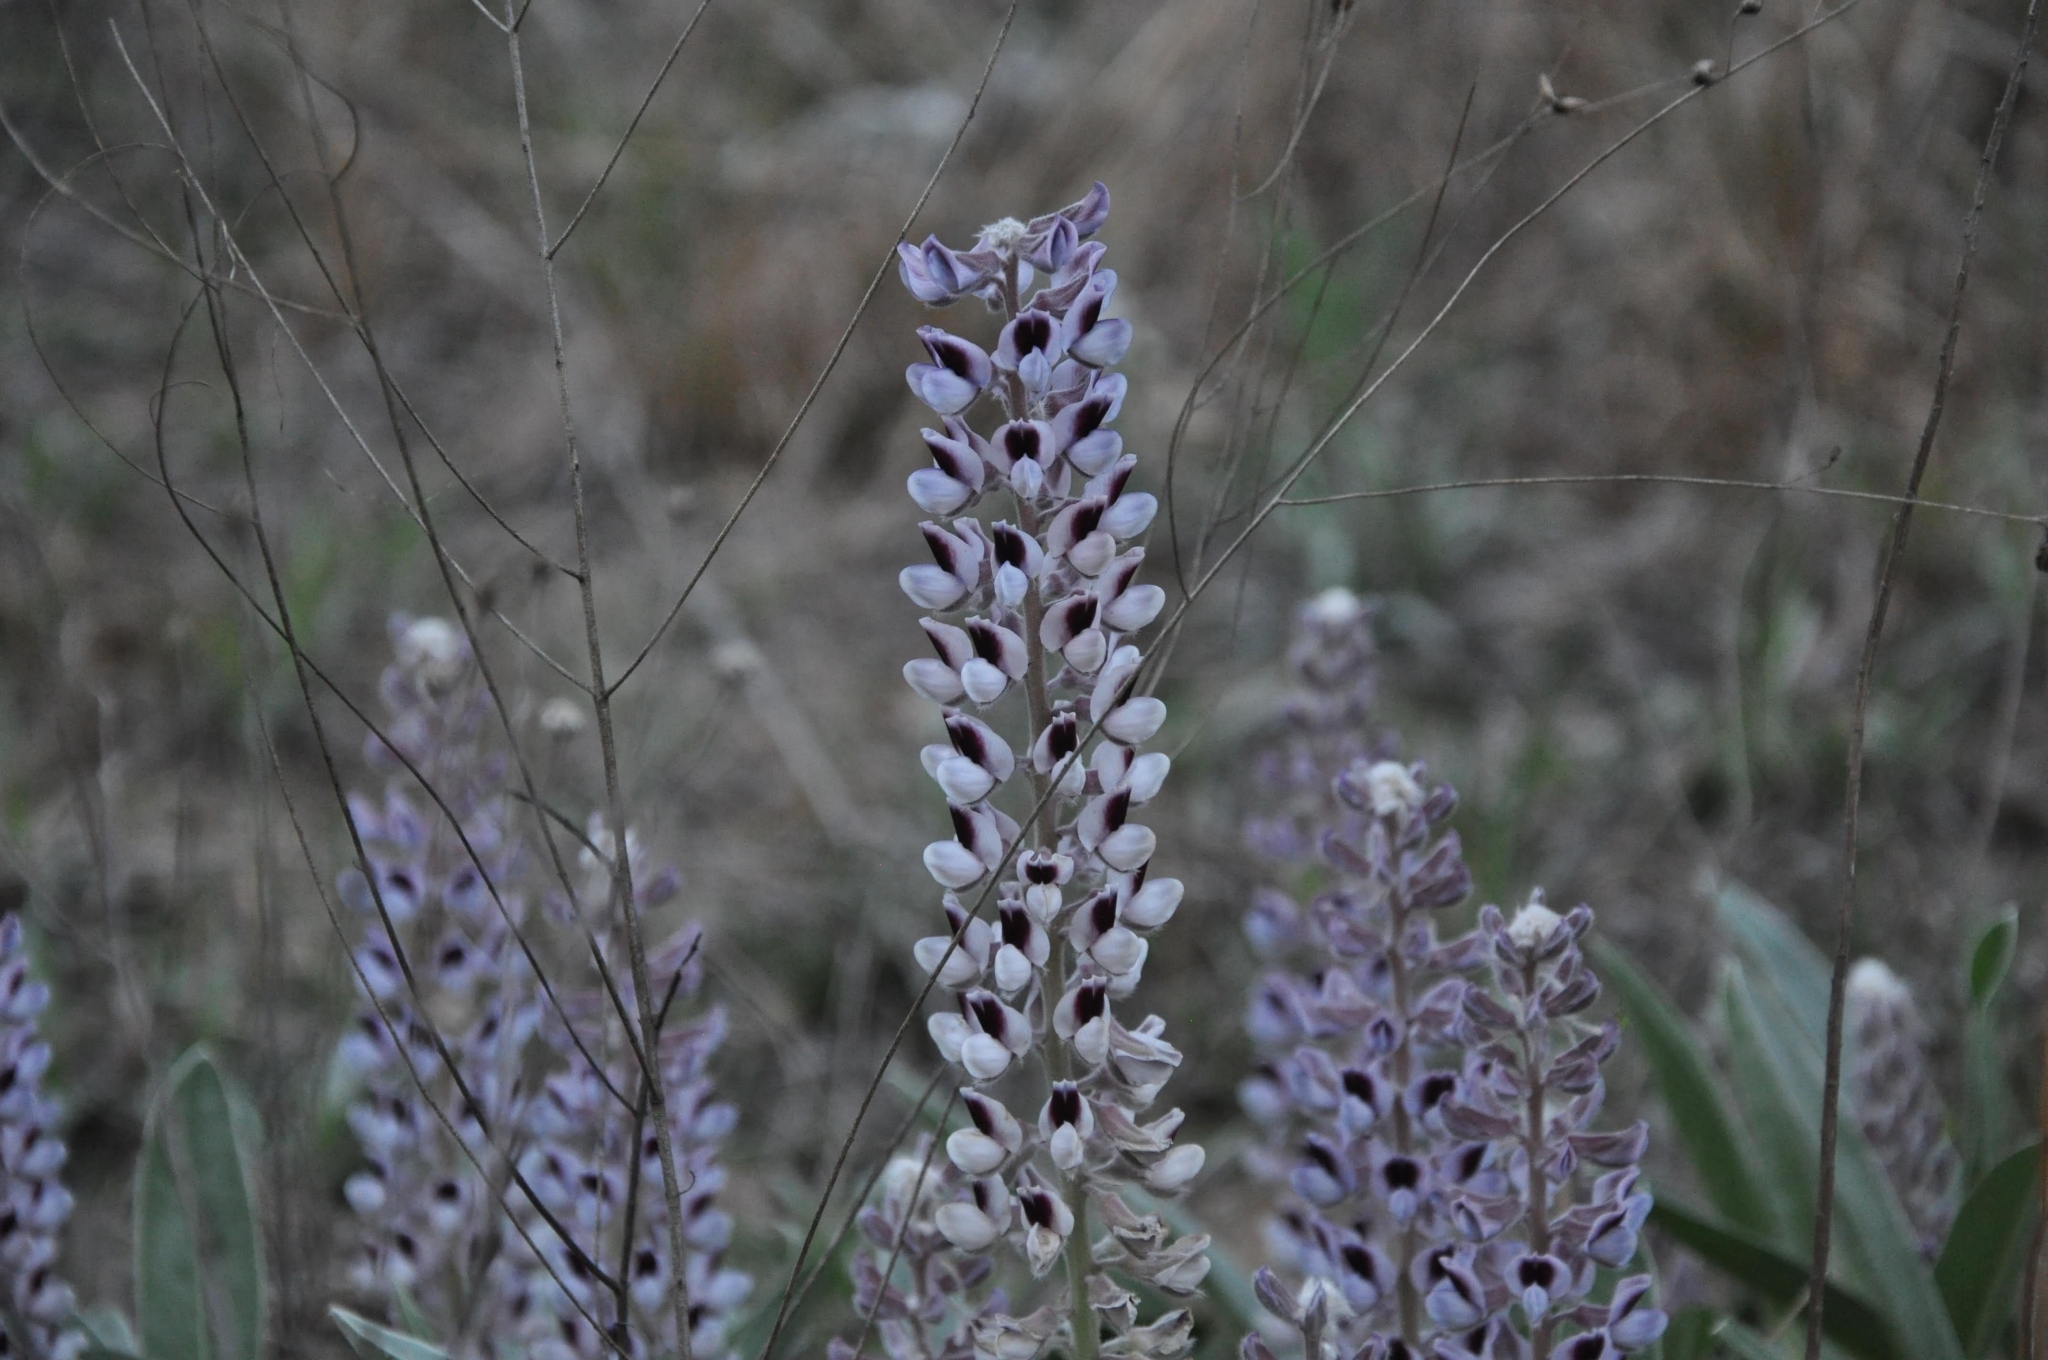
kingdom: Plantae
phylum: Tracheophyta
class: Magnoliopsida
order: Fabales
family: Fabaceae
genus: Lupinus
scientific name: Lupinus villosus
